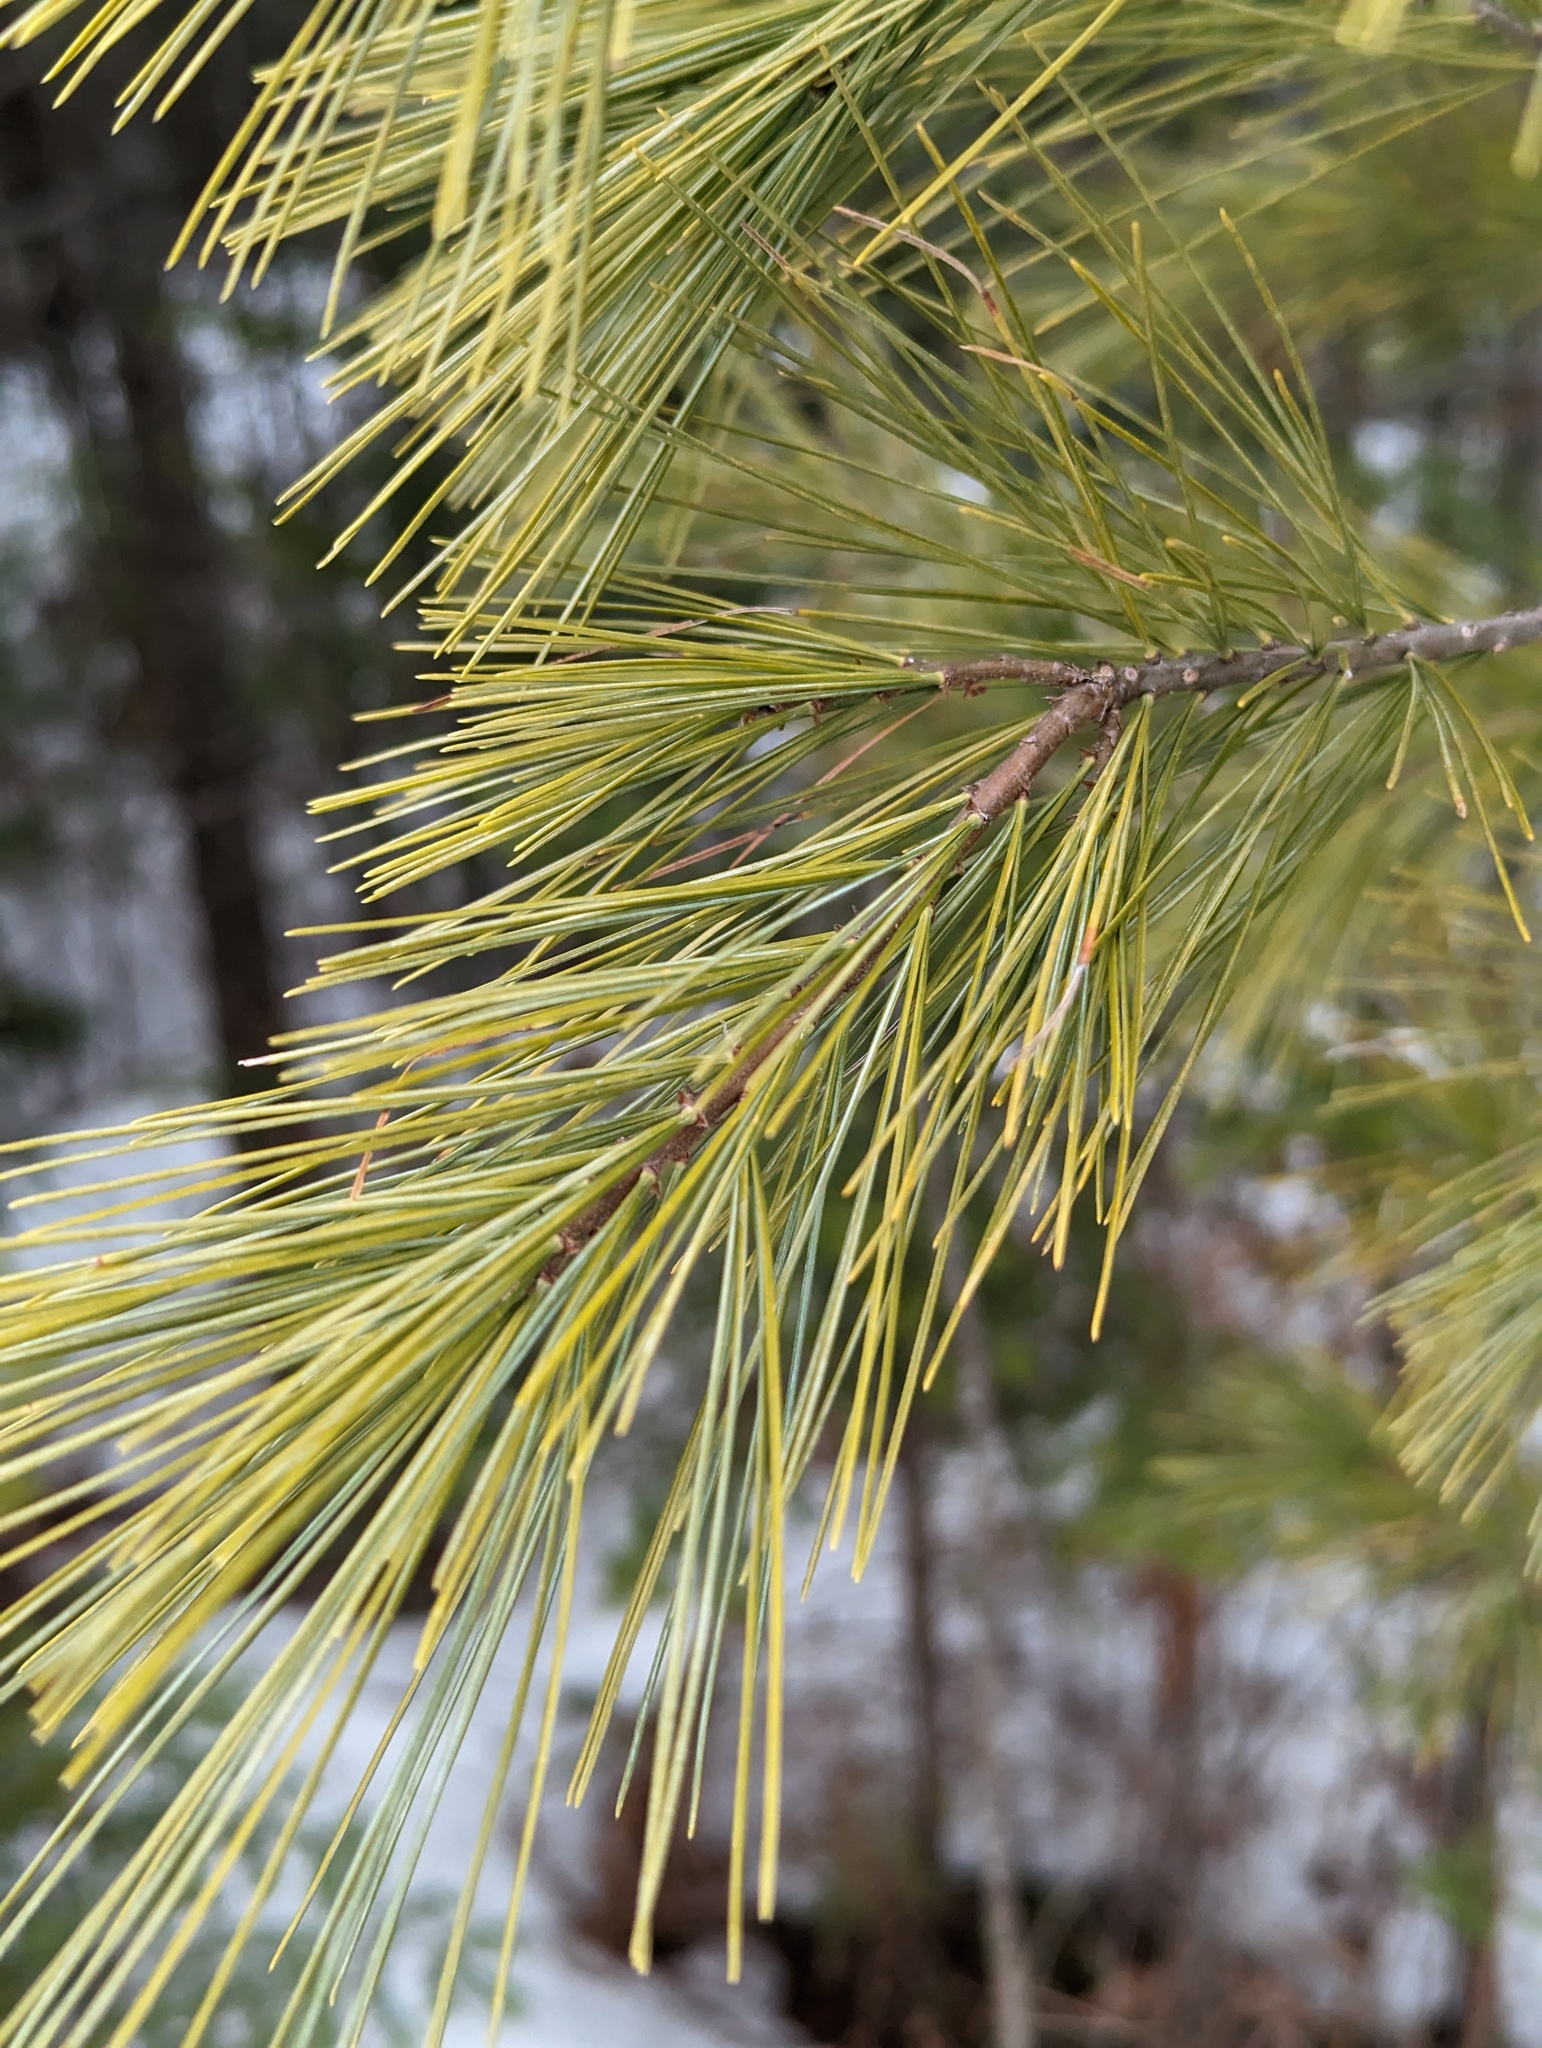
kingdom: Plantae
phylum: Tracheophyta
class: Pinopsida
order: Pinales
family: Pinaceae
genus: Pinus
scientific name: Pinus strobus
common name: Weymouth pine
